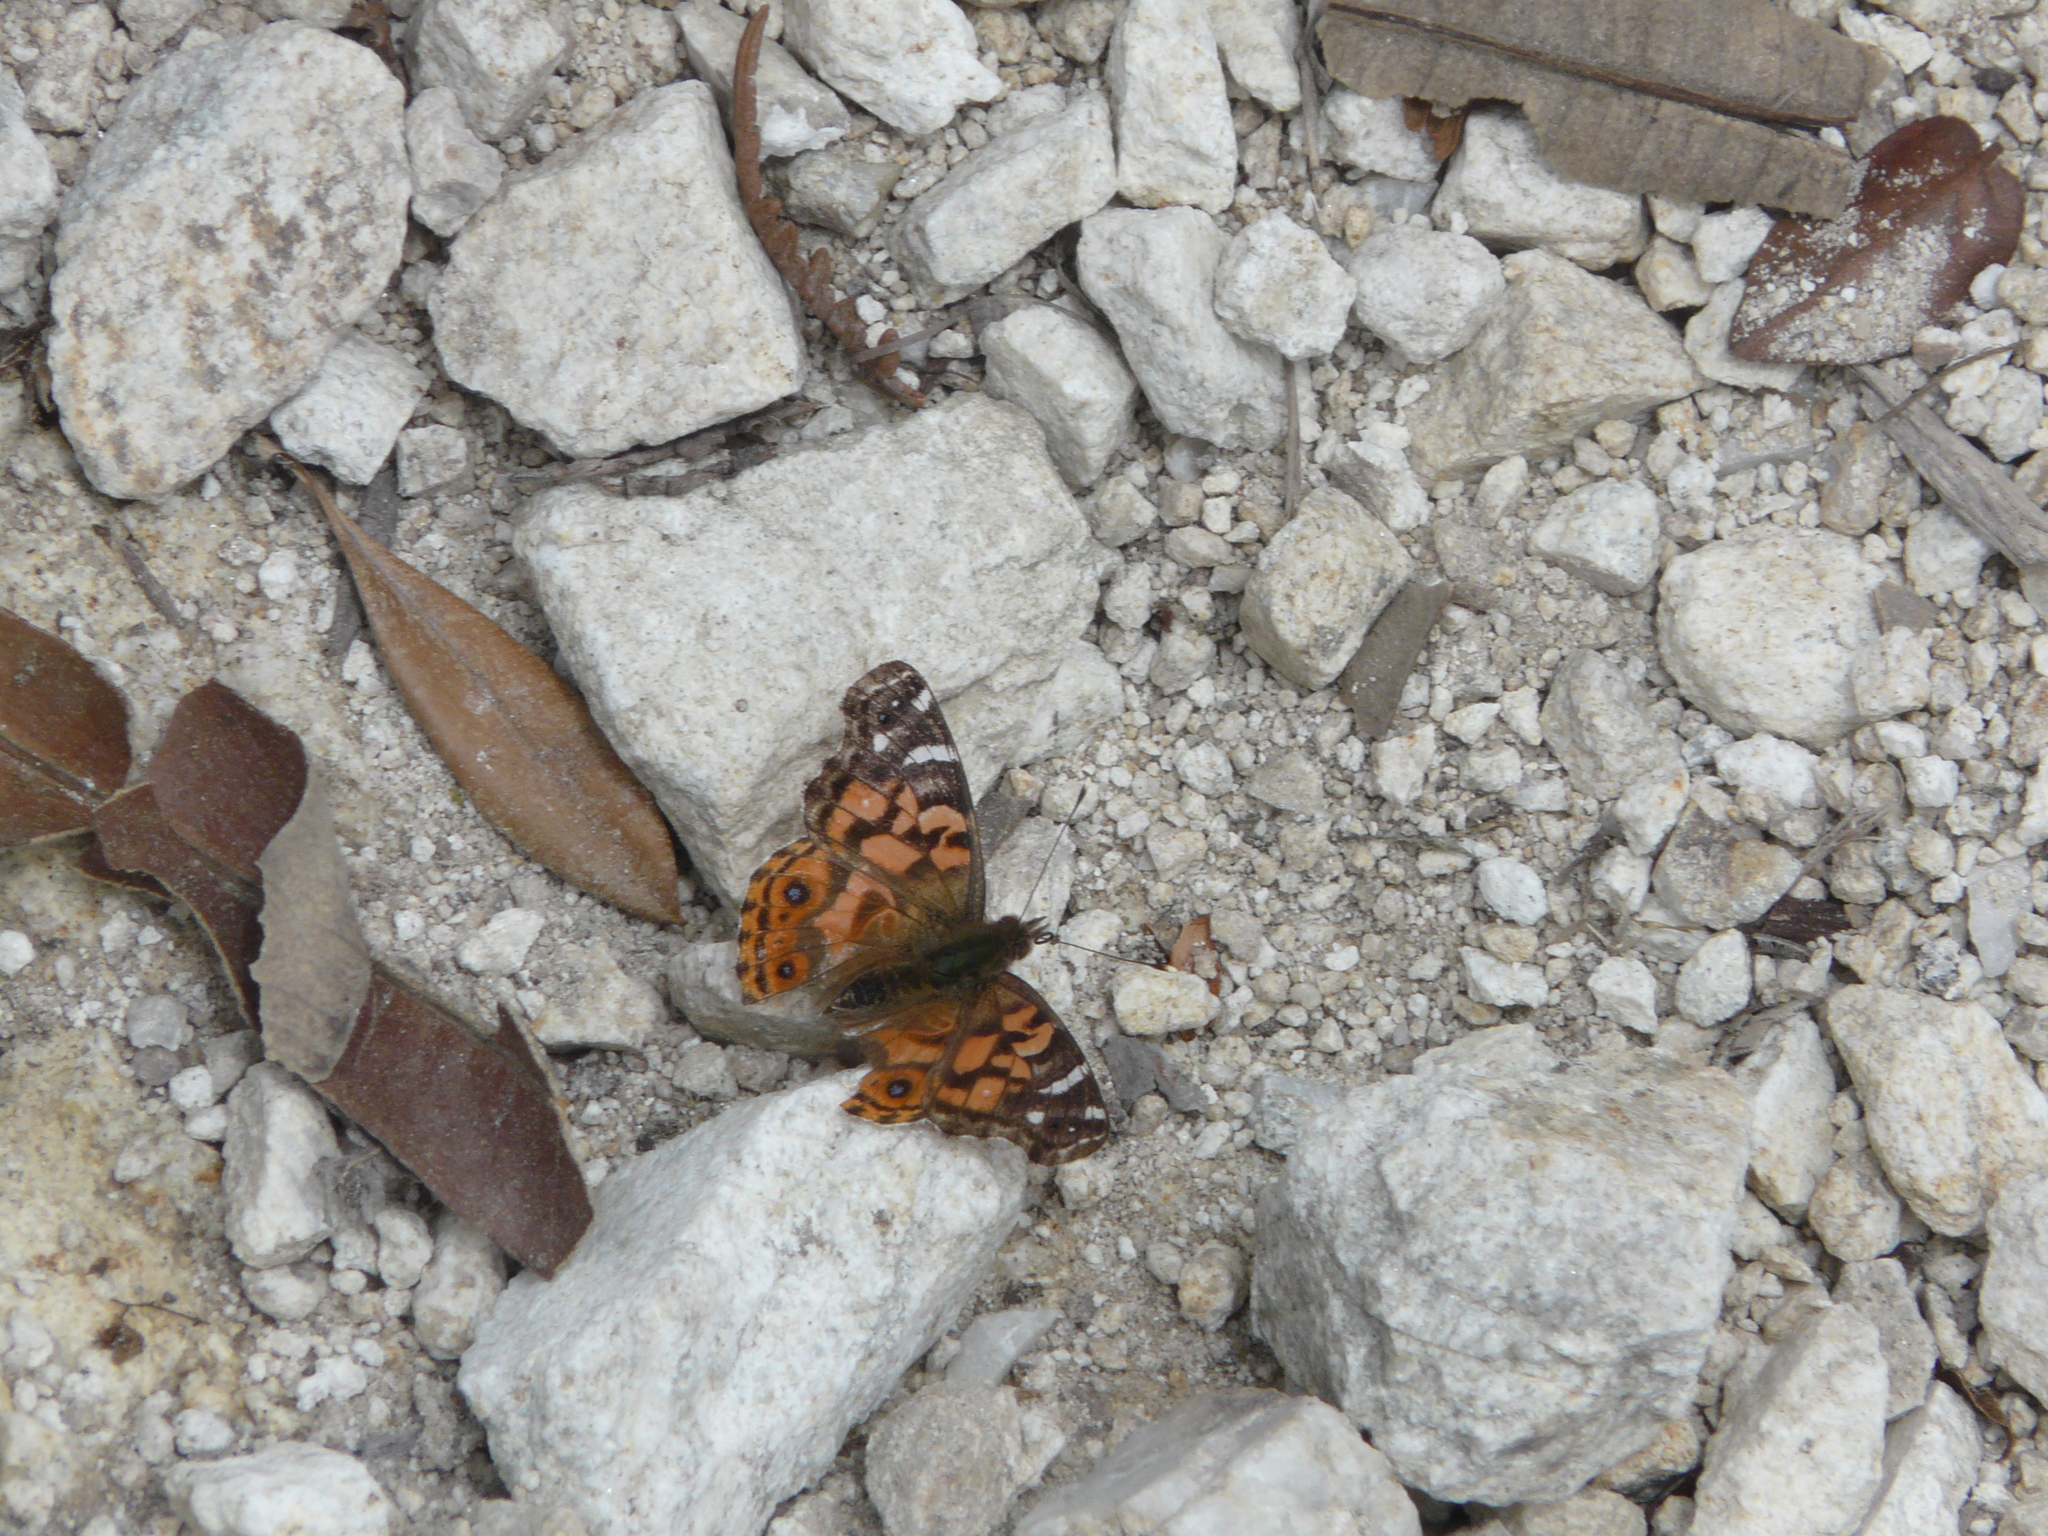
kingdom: Animalia
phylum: Arthropoda
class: Insecta
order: Lepidoptera
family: Nymphalidae
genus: Vanessa
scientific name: Vanessa braziliensis
